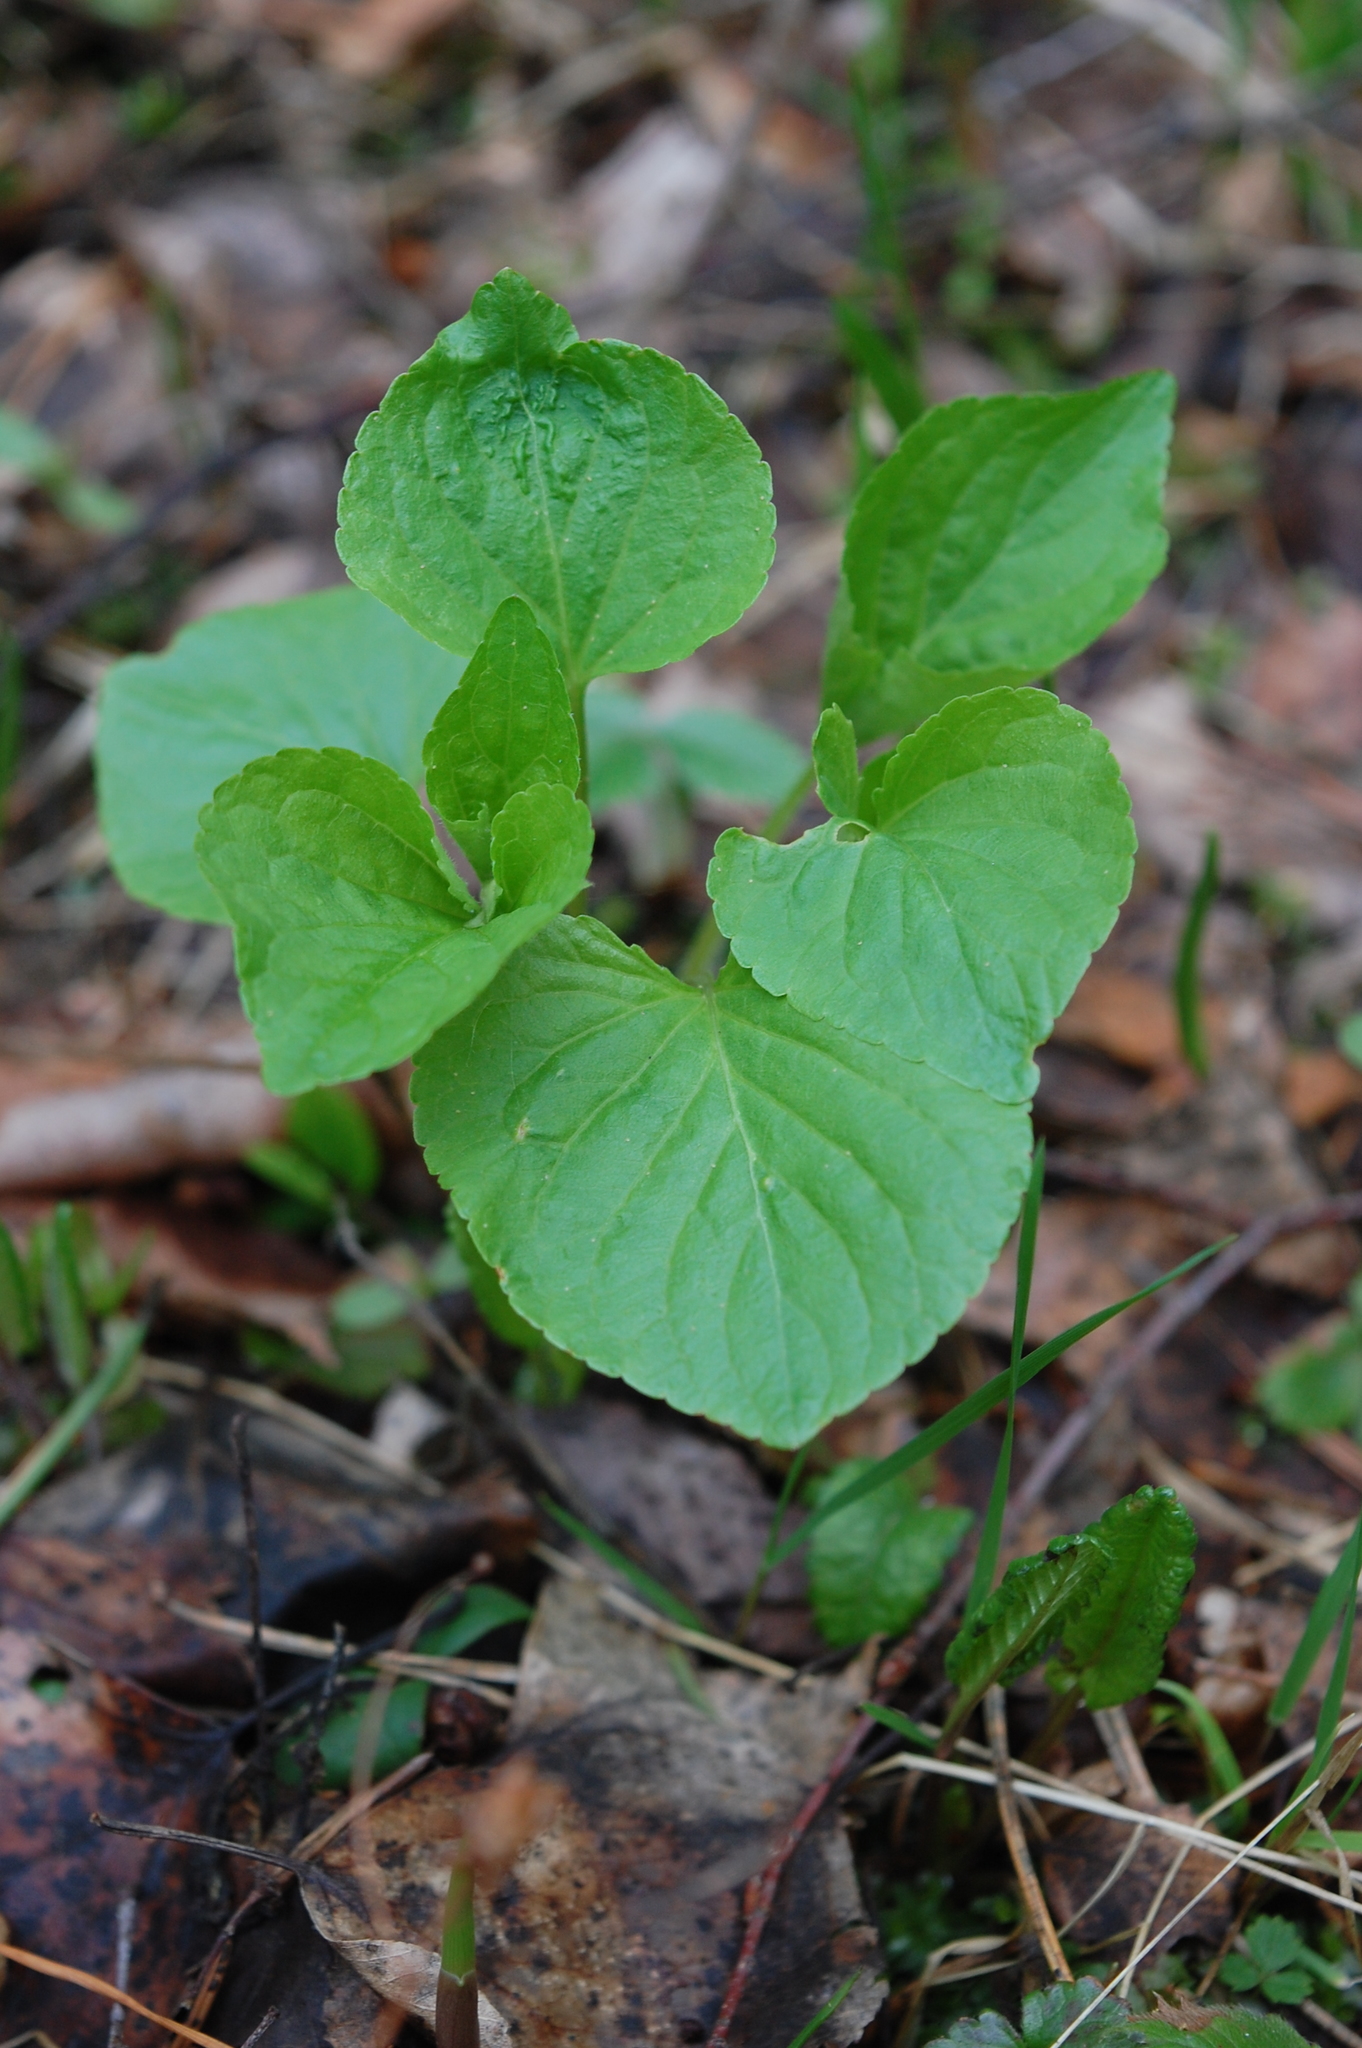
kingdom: Plantae
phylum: Tracheophyta
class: Magnoliopsida
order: Malpighiales
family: Violaceae
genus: Viola
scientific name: Viola mirabilis
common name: Wonder violet
